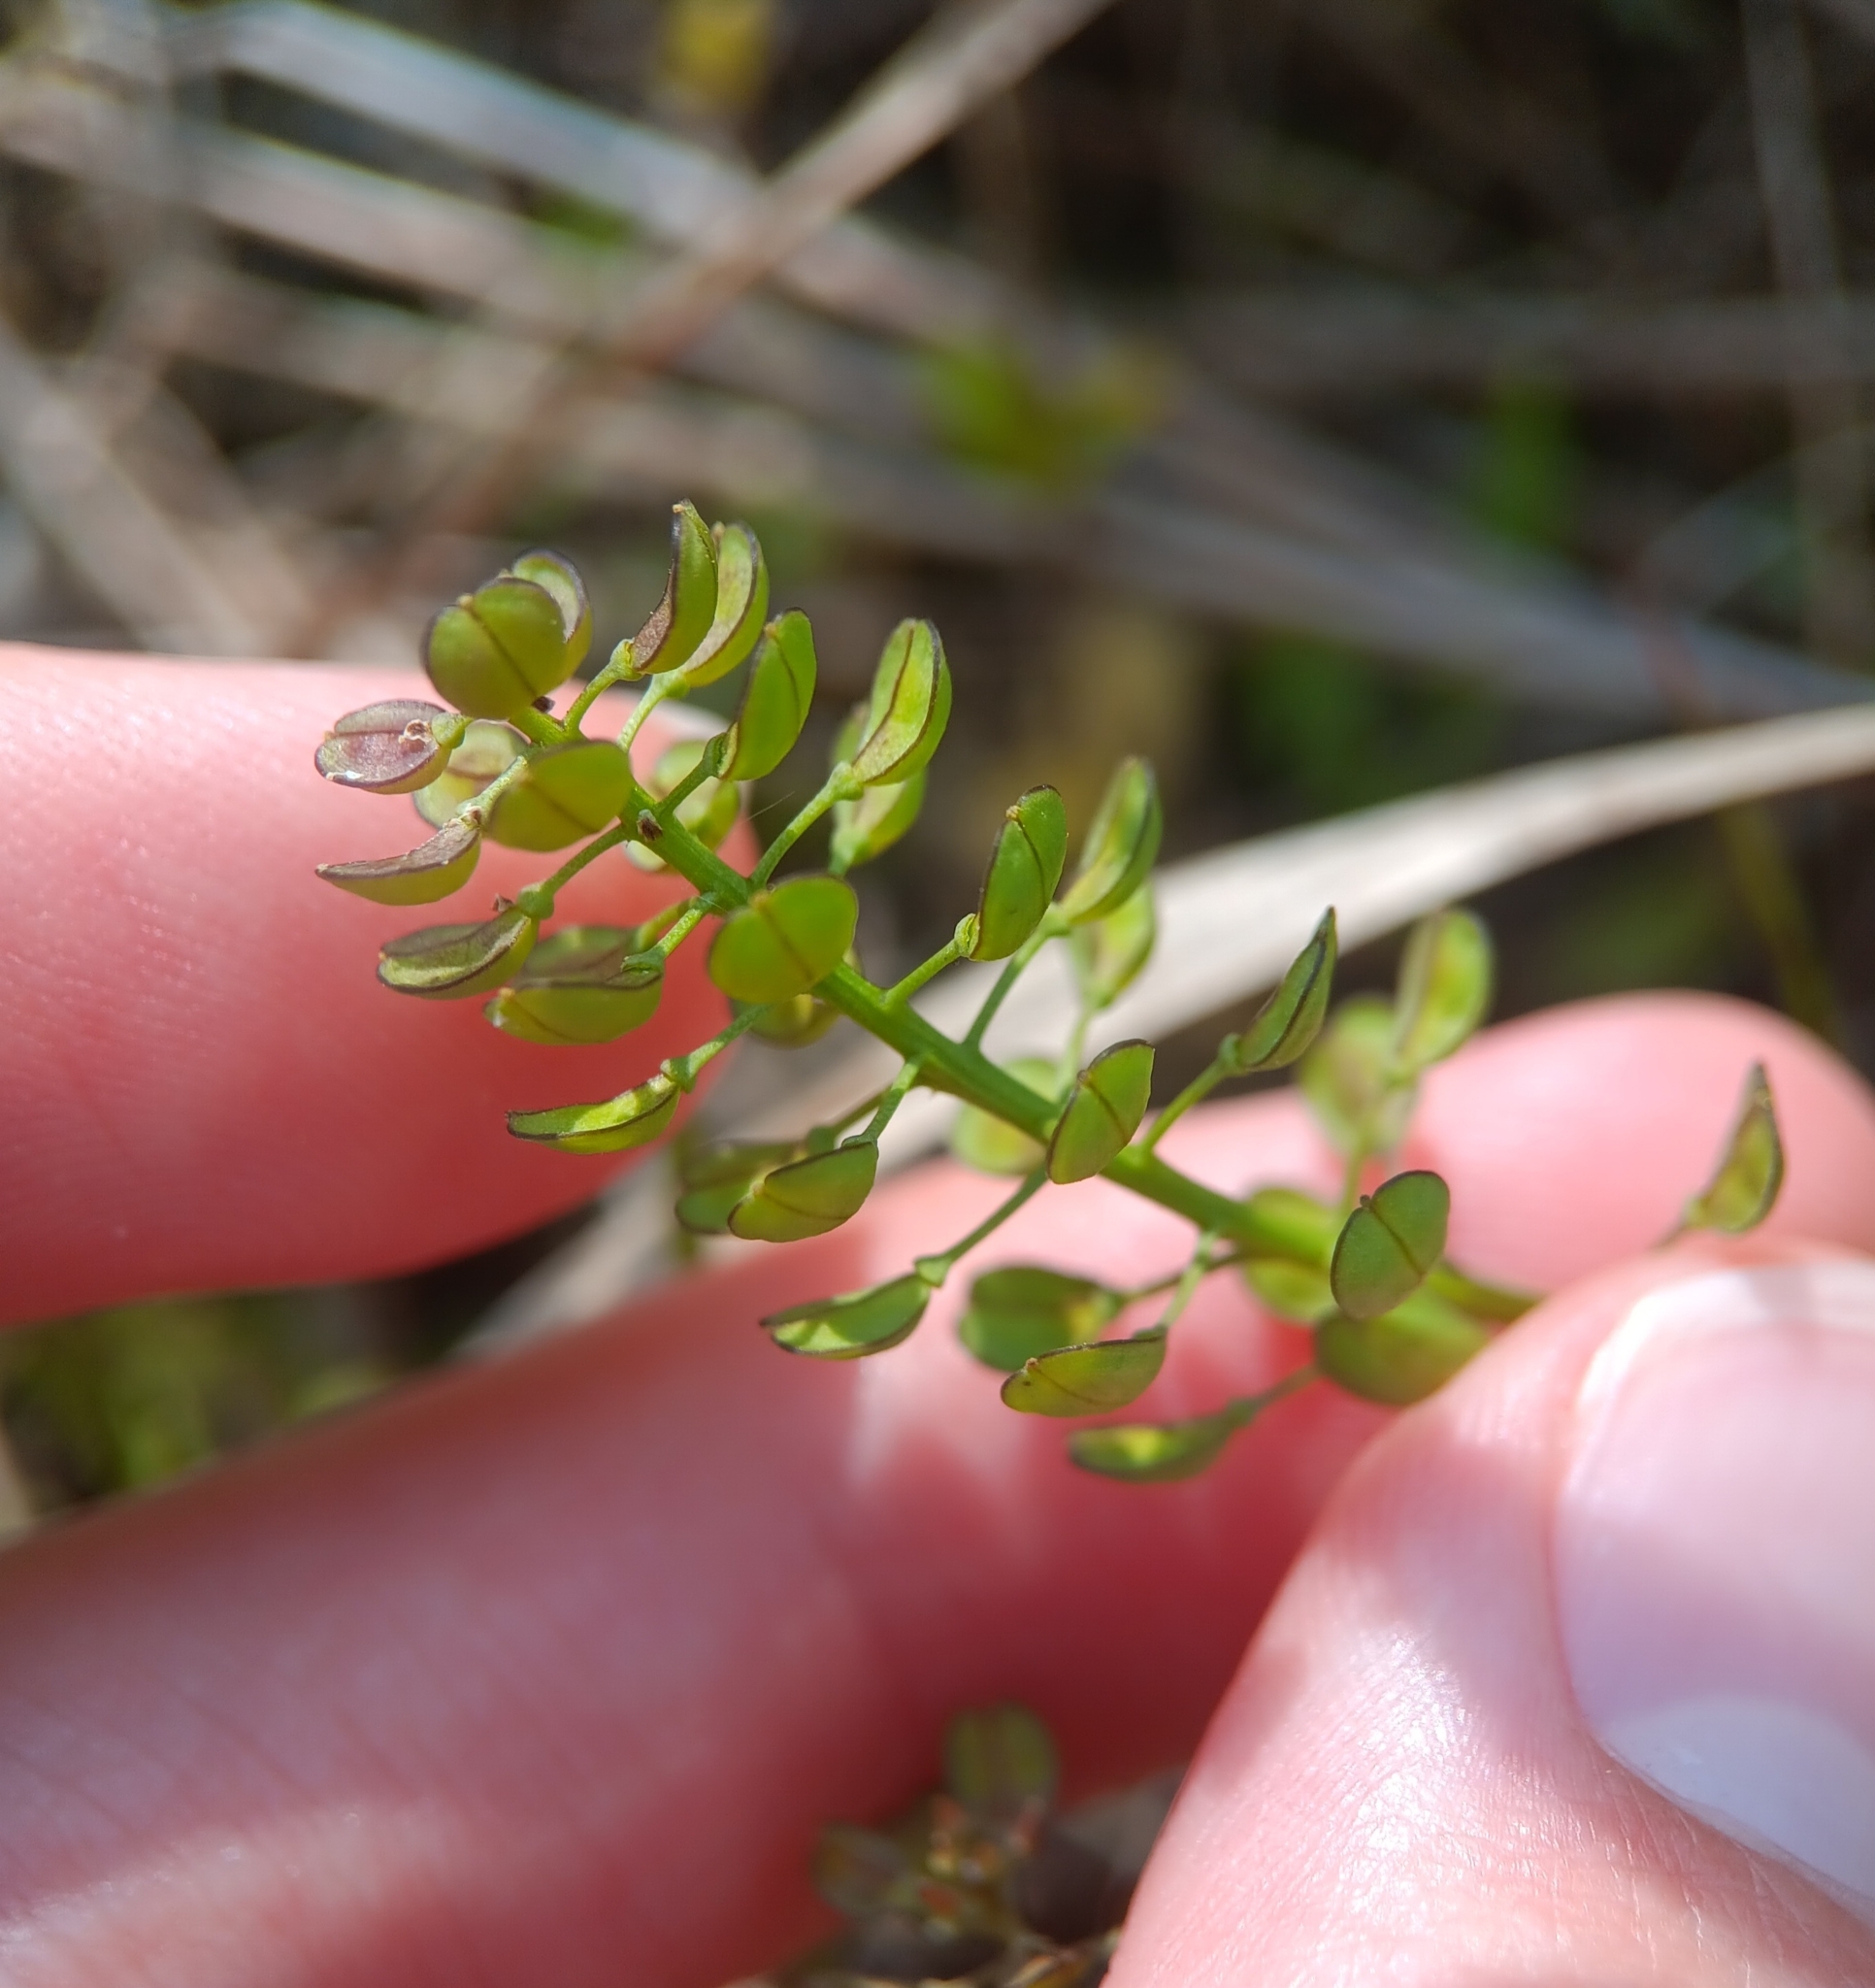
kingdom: Plantae
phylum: Tracheophyta
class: Magnoliopsida
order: Brassicales
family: Brassicaceae
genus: Teesdalia
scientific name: Teesdalia nudicaulis
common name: Shepherd's cress
